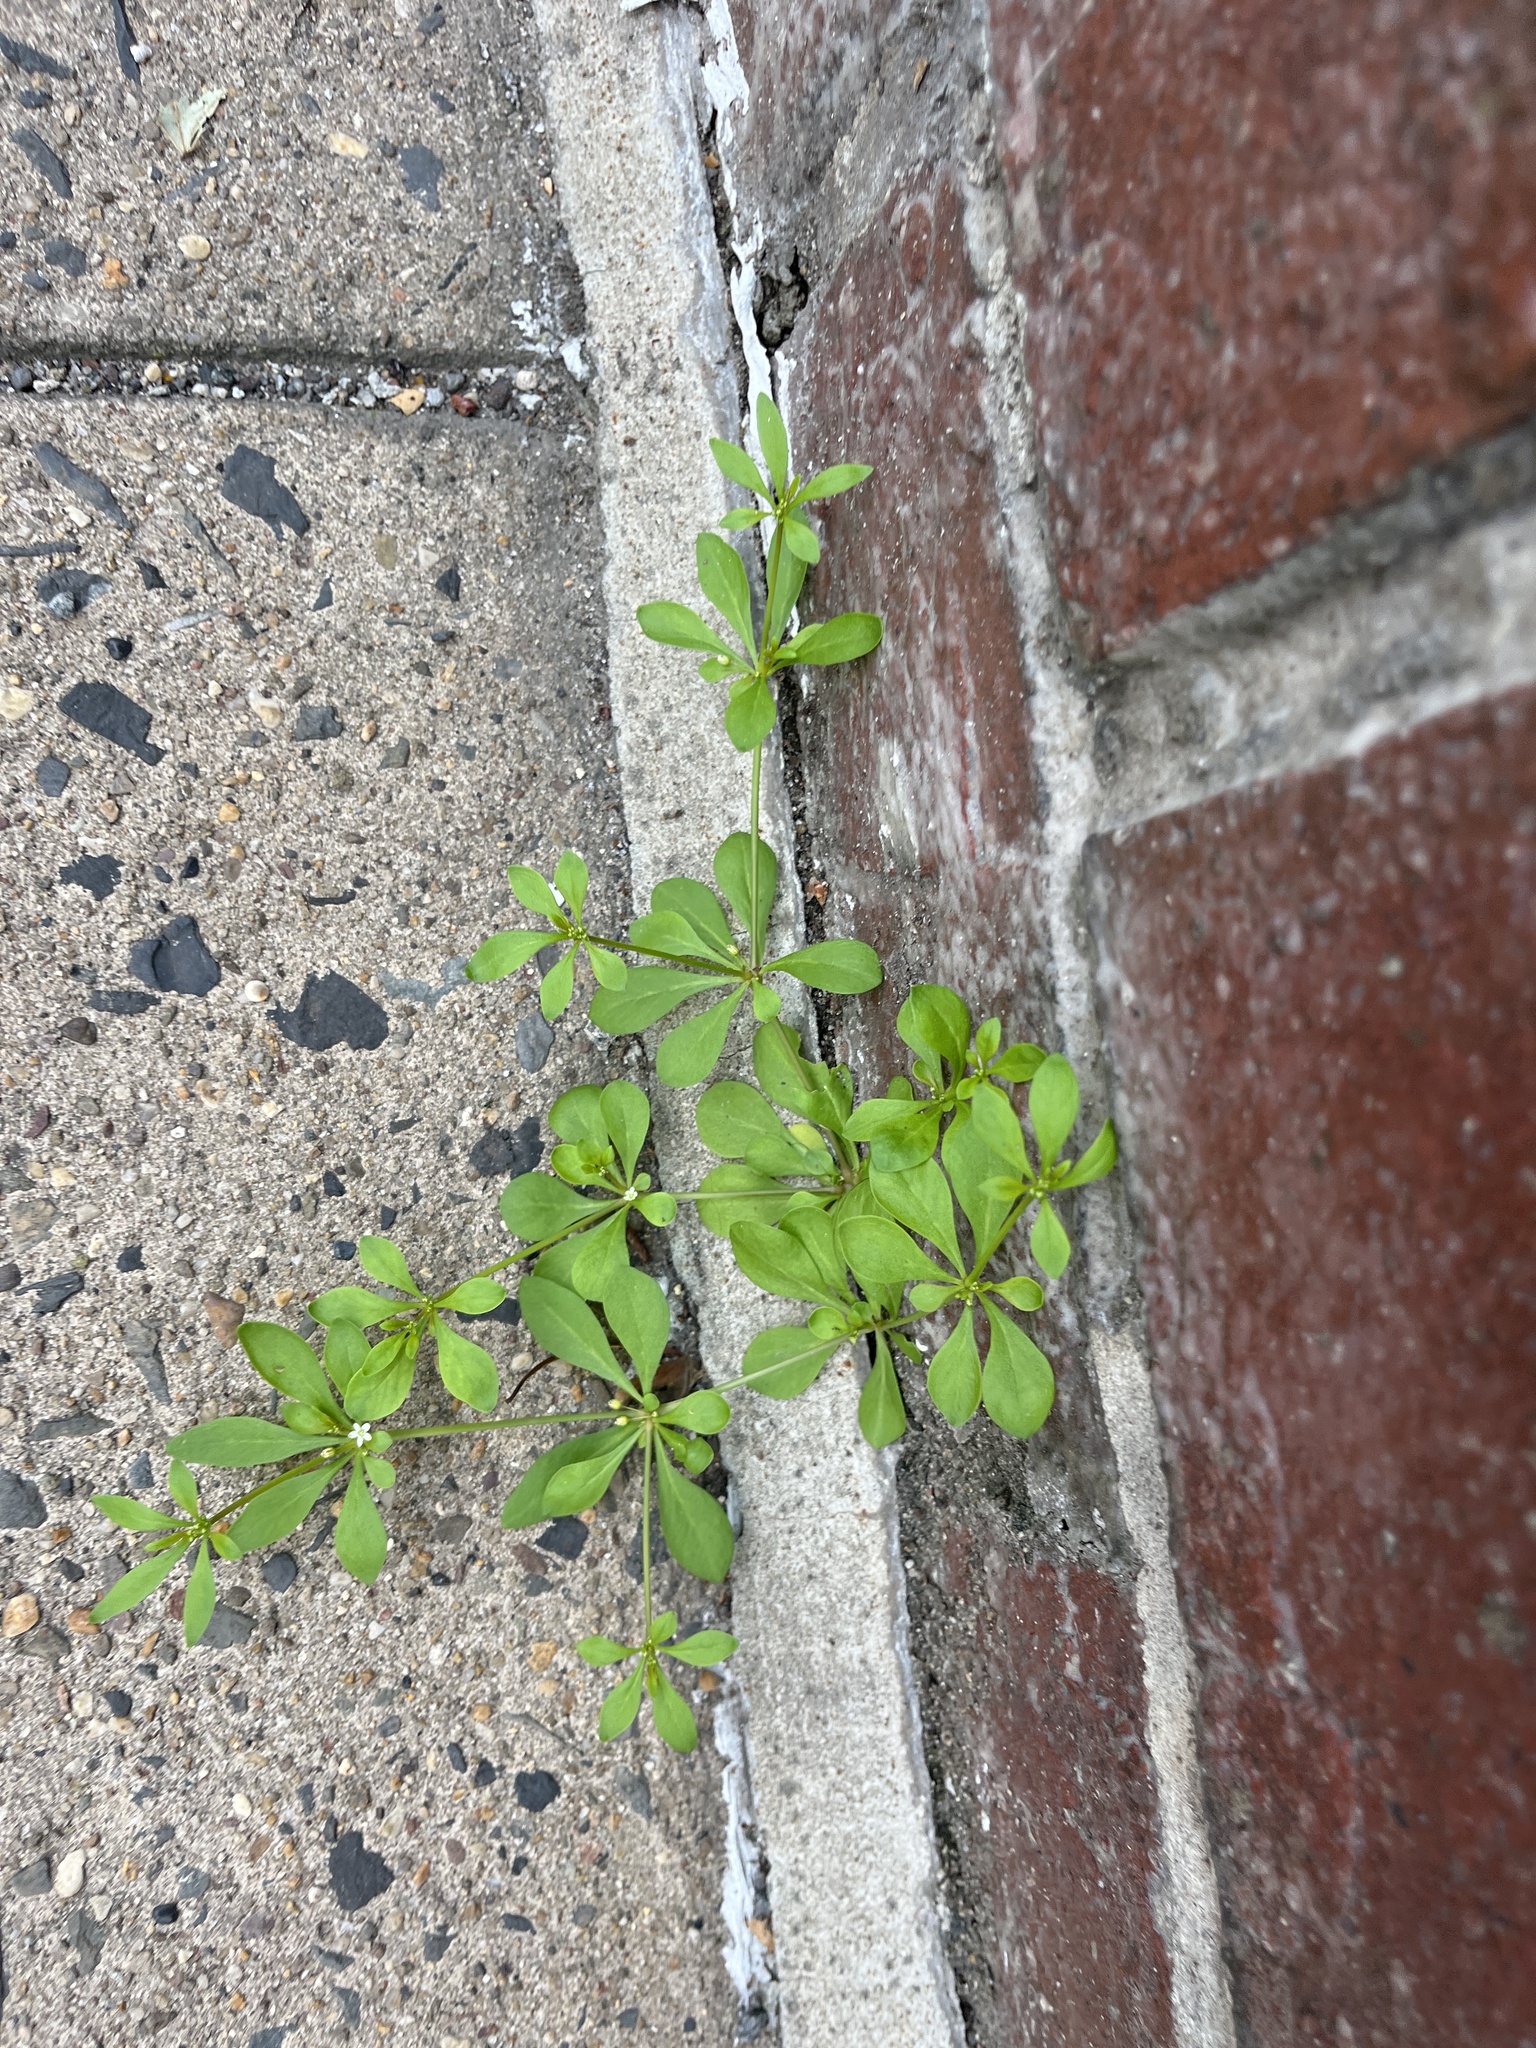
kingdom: Plantae
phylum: Tracheophyta
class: Magnoliopsida
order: Caryophyllales
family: Molluginaceae
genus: Mollugo
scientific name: Mollugo verticillata
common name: Green carpetweed
